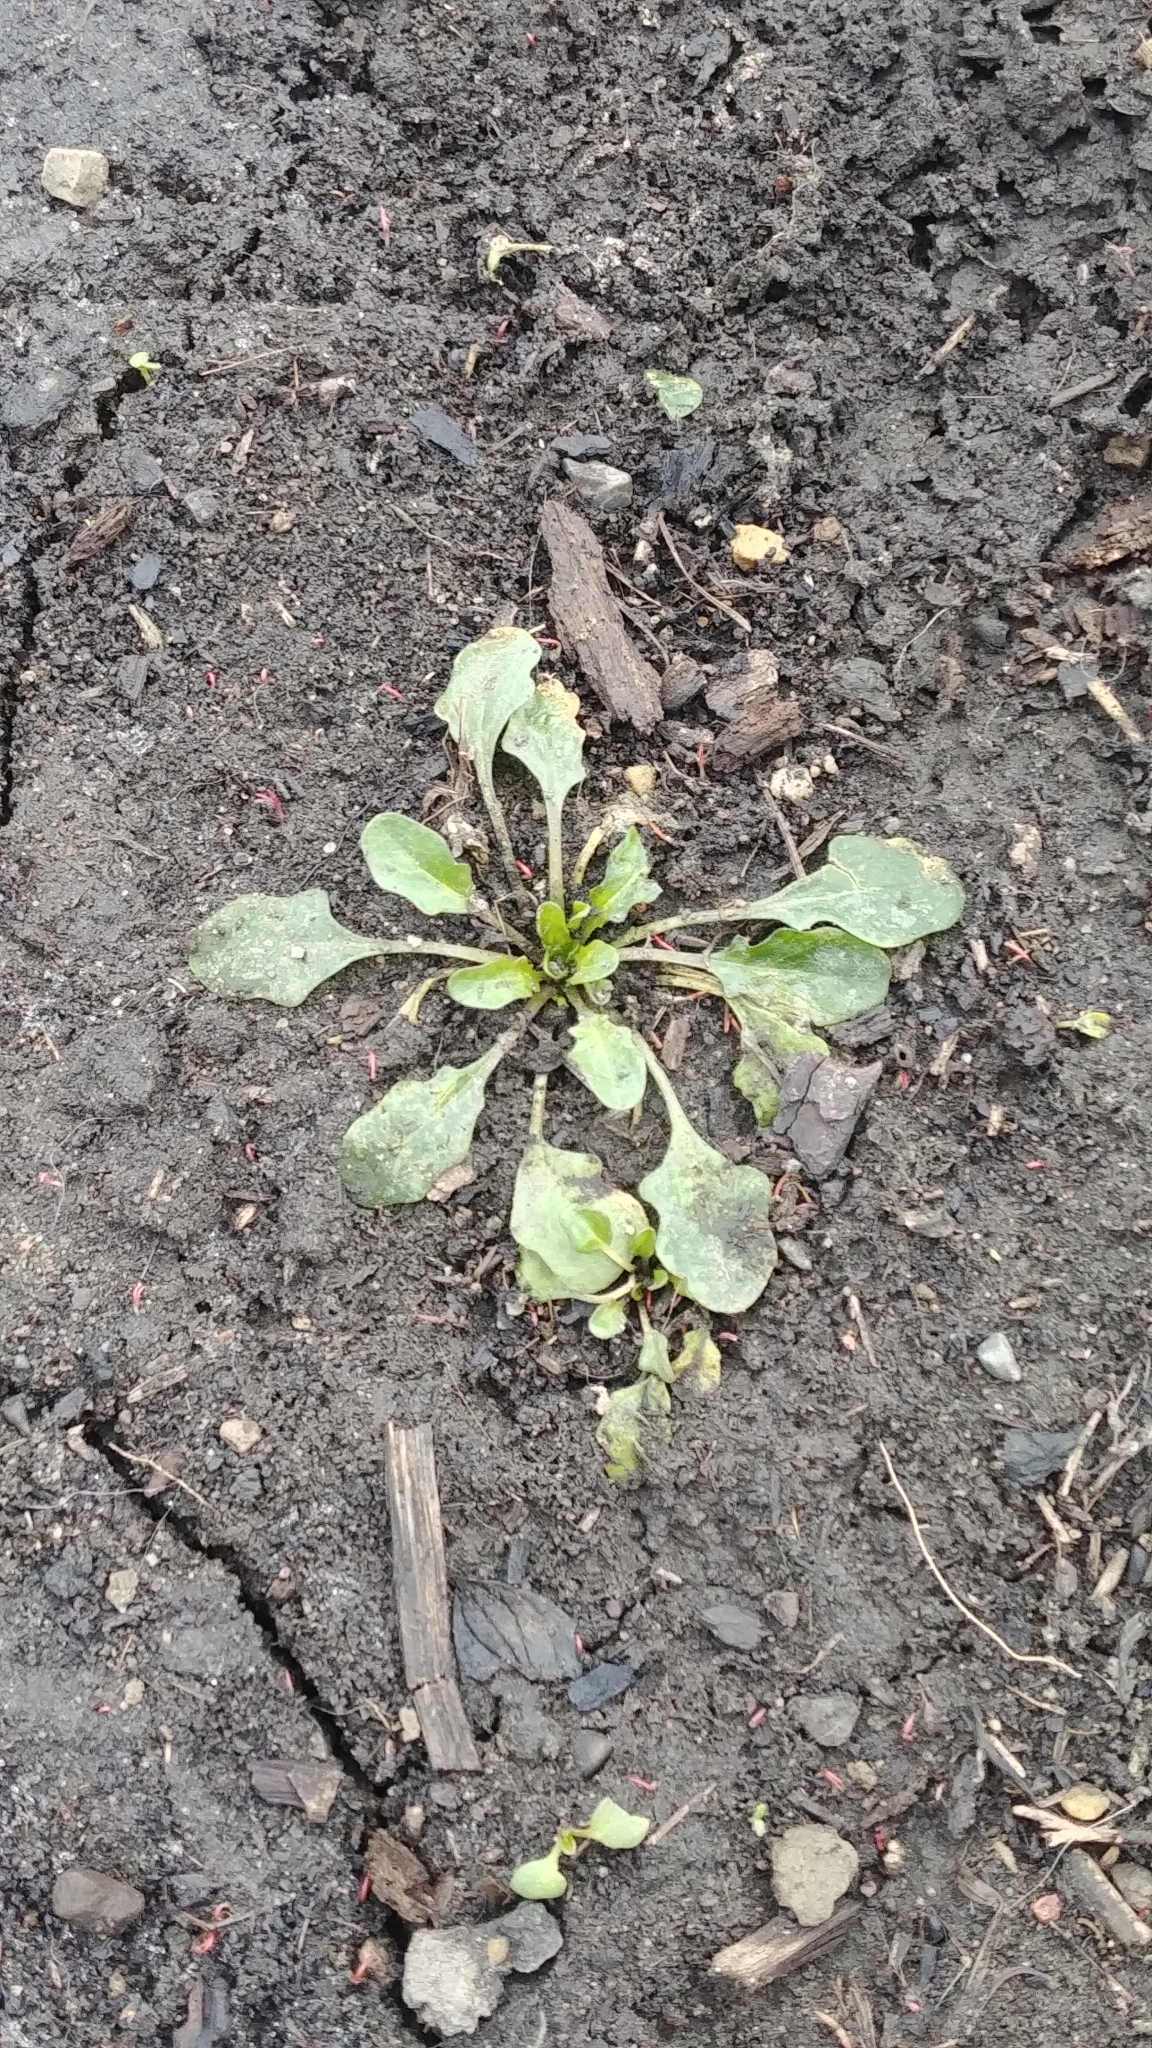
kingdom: Plantae
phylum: Tracheophyta
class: Magnoliopsida
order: Brassicales
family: Brassicaceae
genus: Thlaspi
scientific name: Thlaspi arvense
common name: Field pennycress
